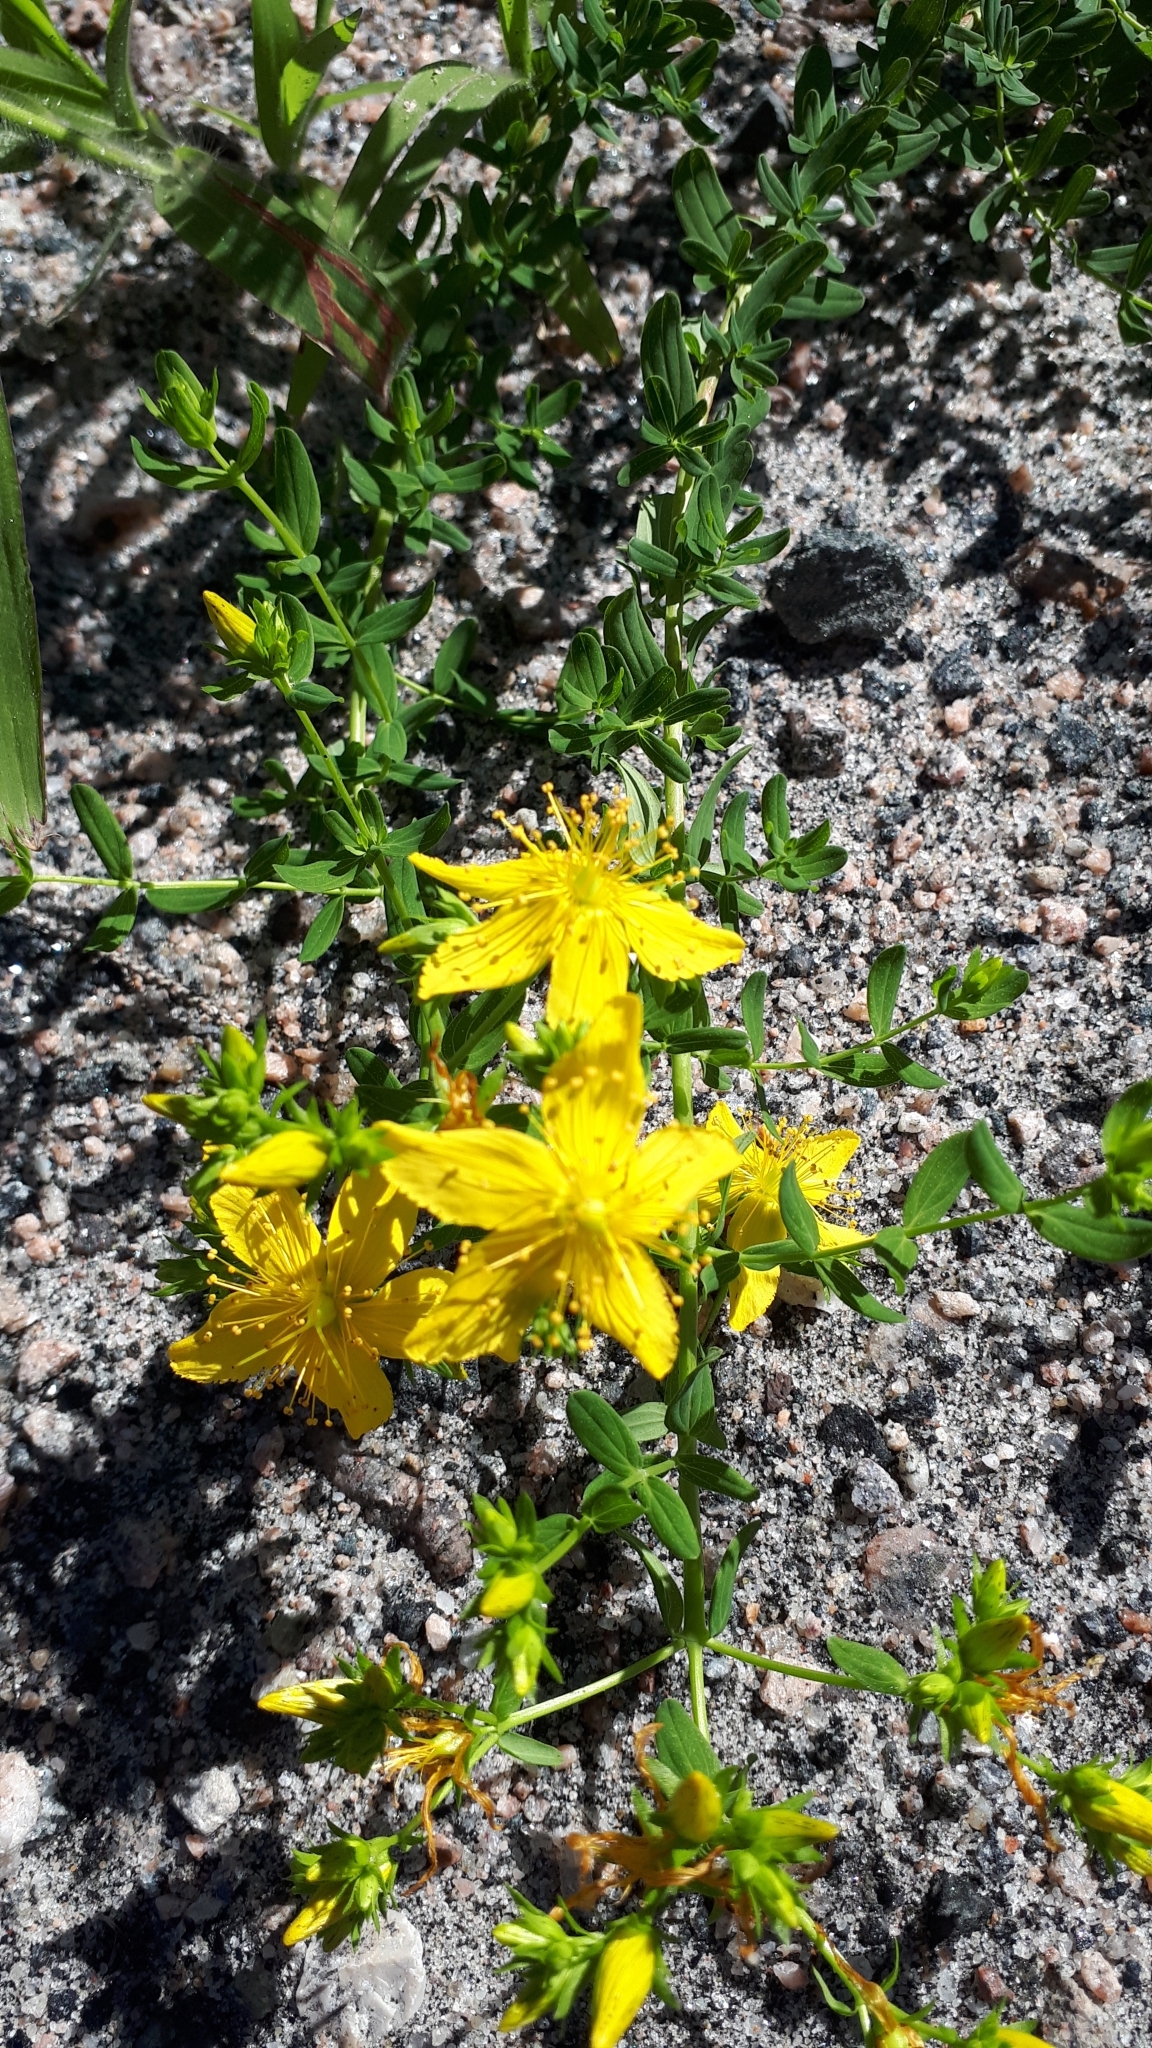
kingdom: Plantae
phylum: Tracheophyta
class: Magnoliopsida
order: Malpighiales
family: Hypericaceae
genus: Hypericum
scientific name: Hypericum perforatum
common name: Common st. johnswort
